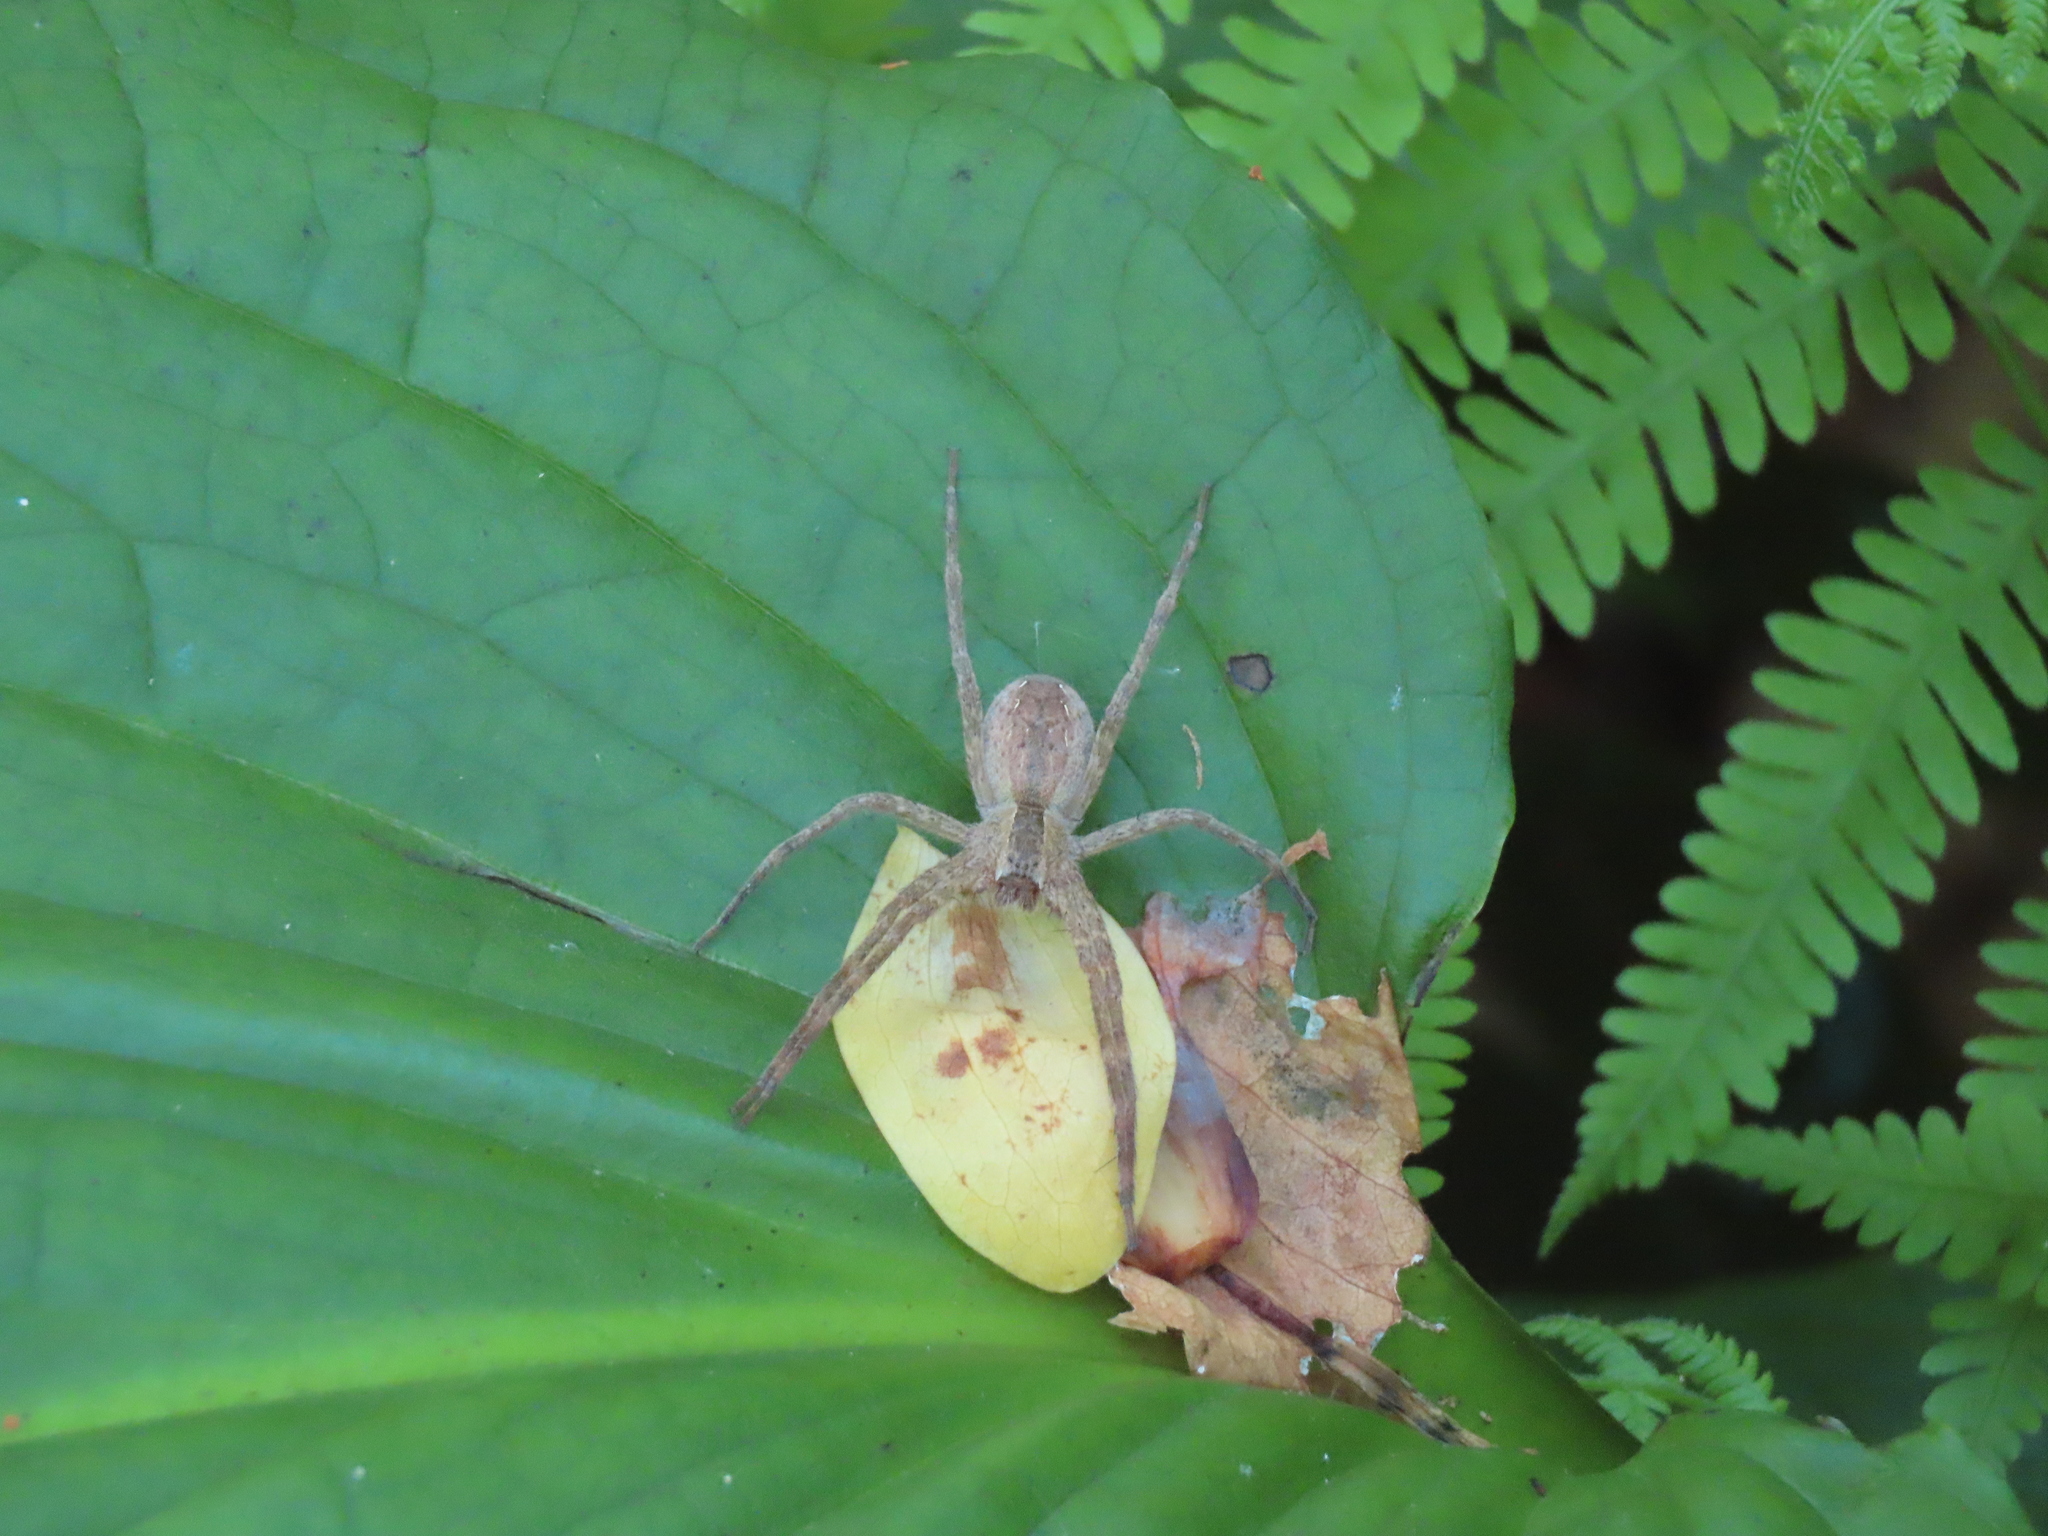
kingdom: Animalia
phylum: Arthropoda
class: Arachnida
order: Araneae
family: Pisauridae
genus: Pisaurina
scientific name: Pisaurina mira
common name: American nursery web spider
